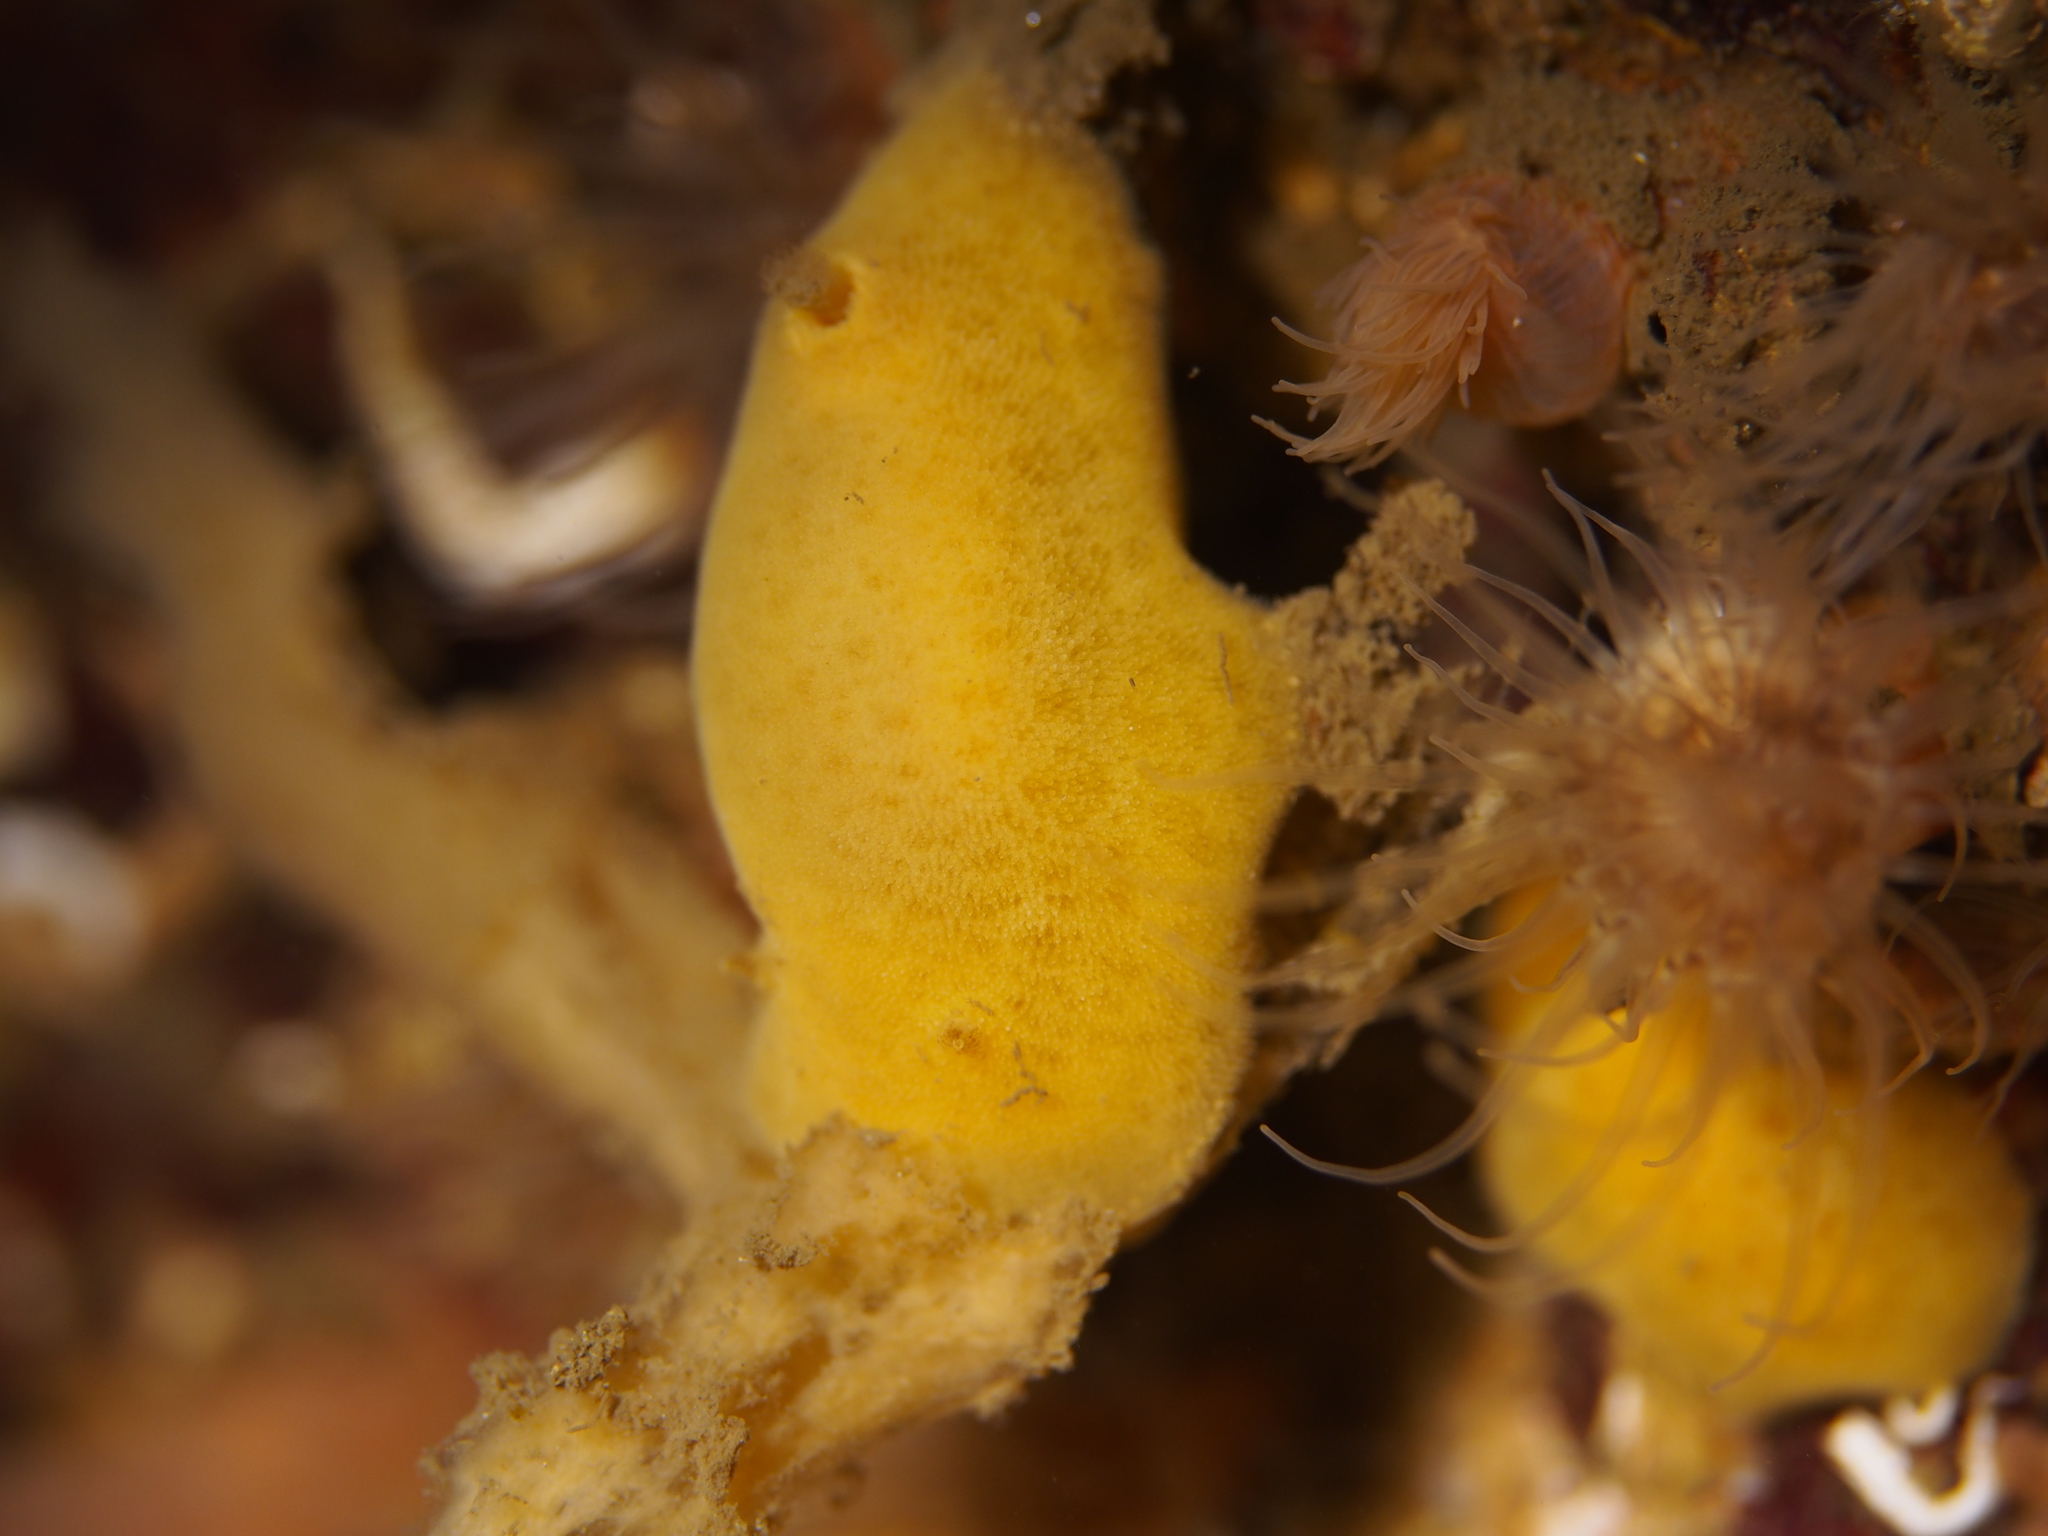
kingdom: Animalia
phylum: Mollusca
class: Gastropoda
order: Nudibranchia
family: Discodorididae
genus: Jorunna
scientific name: Jorunna tomentosa
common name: Grey sea slug
